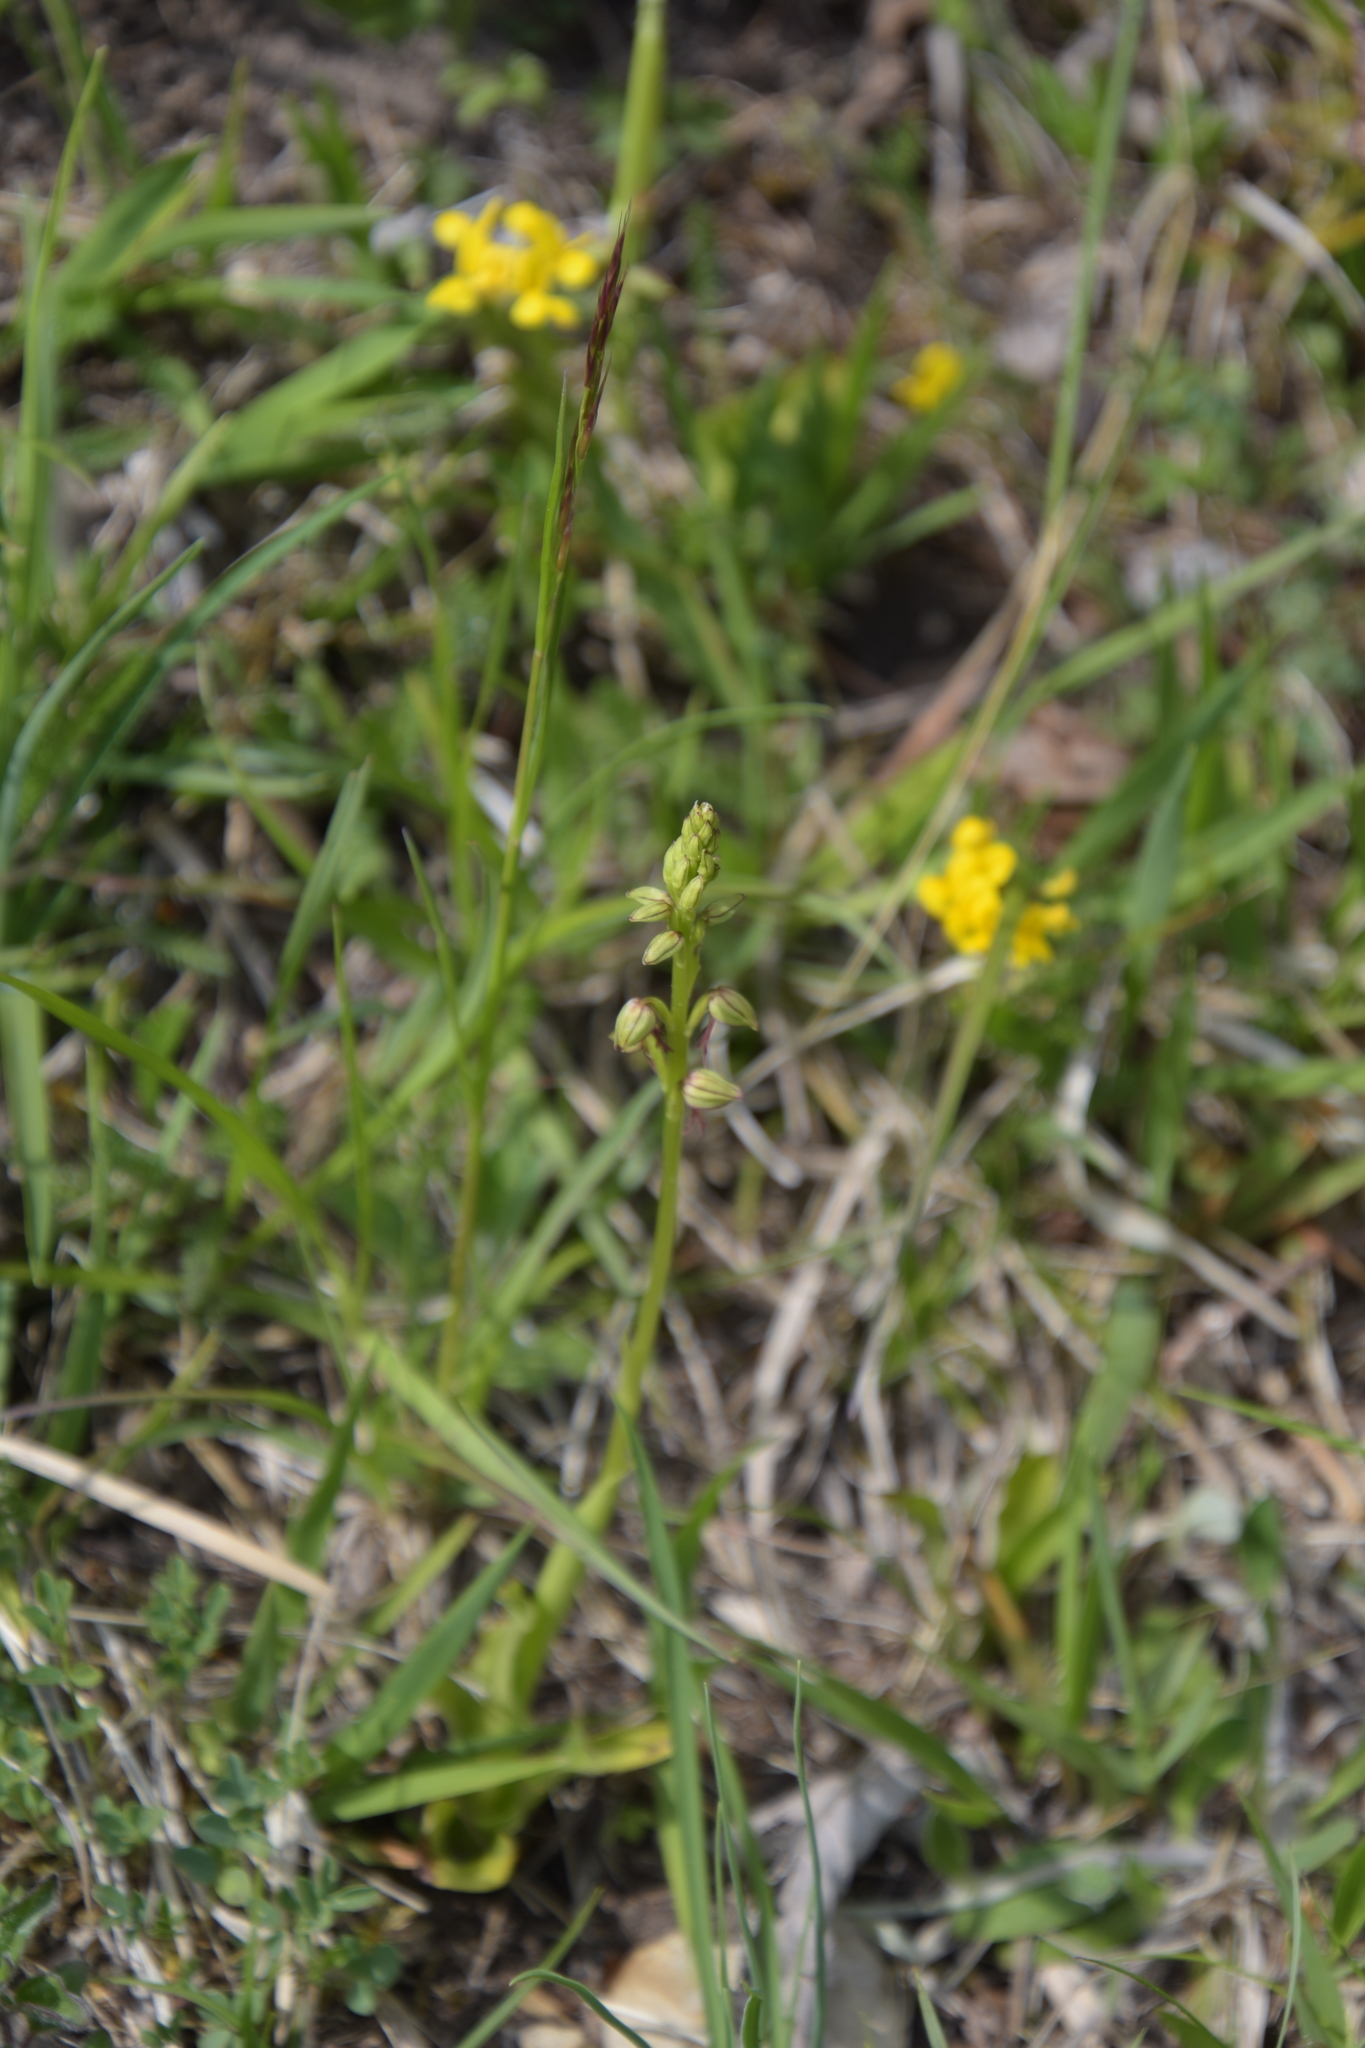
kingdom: Plantae
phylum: Tracheophyta
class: Liliopsida
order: Asparagales
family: Orchidaceae
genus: Orchis
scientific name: Orchis anthropophora
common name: Man orchid
